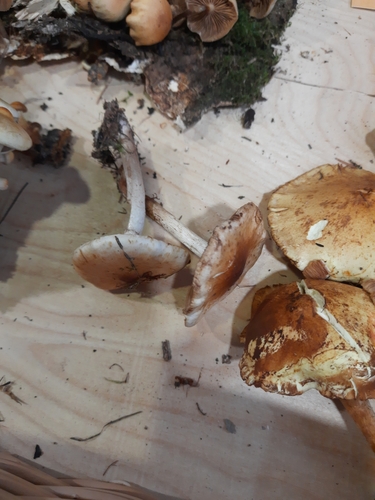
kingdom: Fungi
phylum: Basidiomycota
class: Agaricomycetes
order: Agaricales
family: Strophariaceae
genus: Pholiota
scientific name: Pholiota
